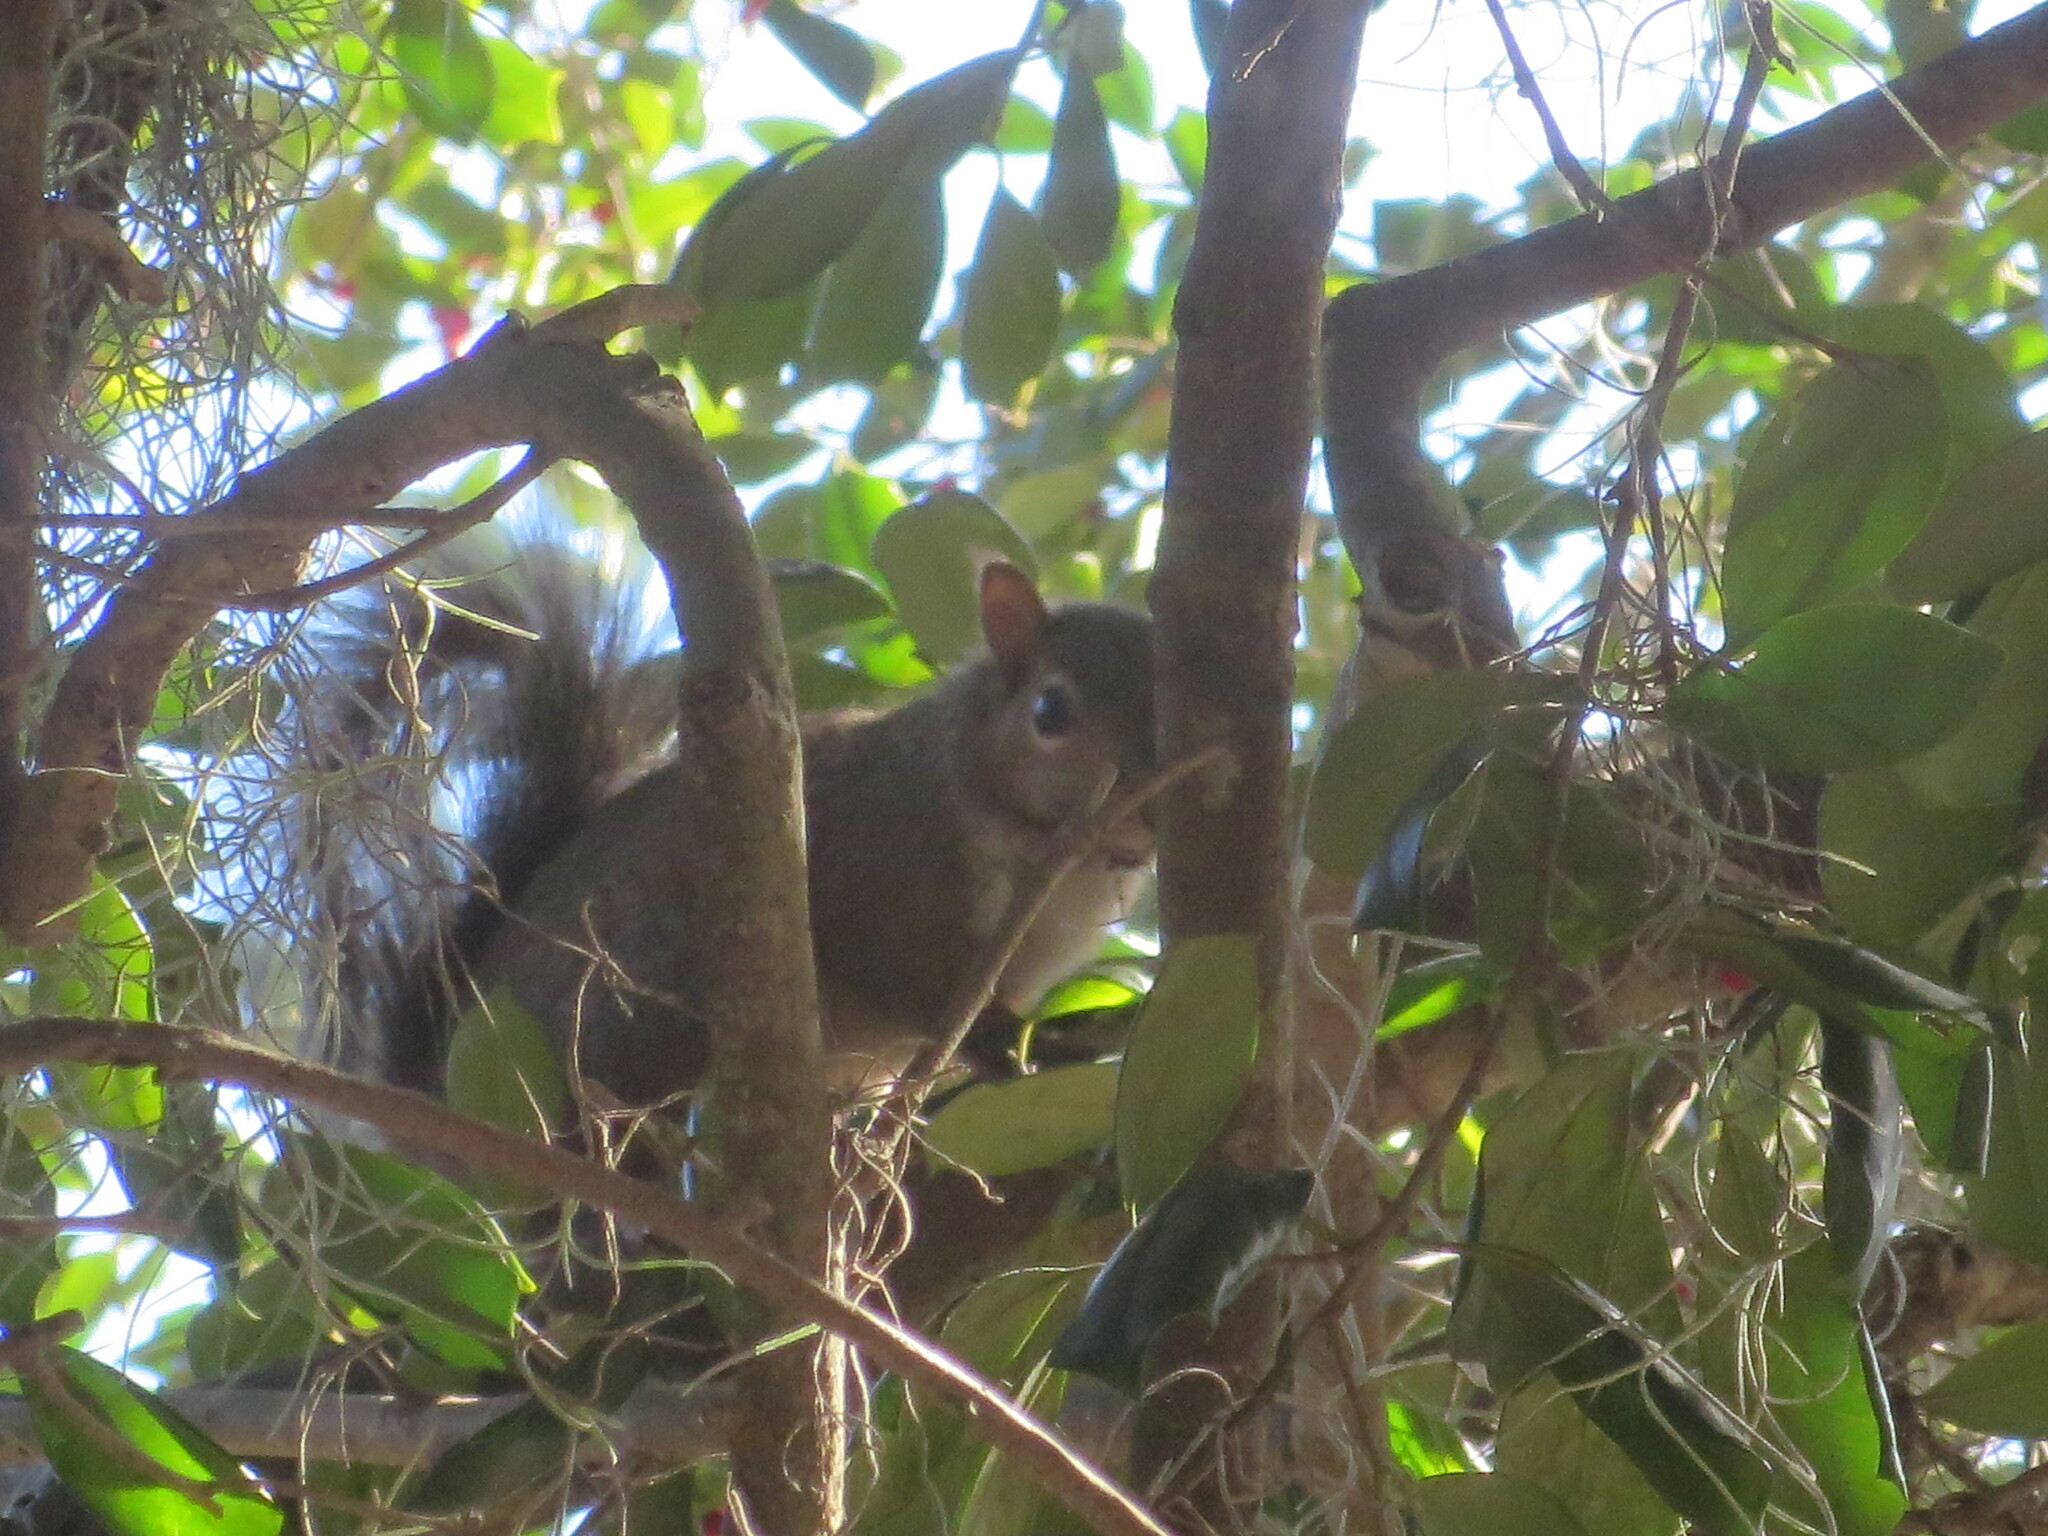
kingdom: Animalia
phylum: Chordata
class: Mammalia
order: Rodentia
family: Sciuridae
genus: Sciurus
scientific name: Sciurus carolinensis
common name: Eastern gray squirrel
